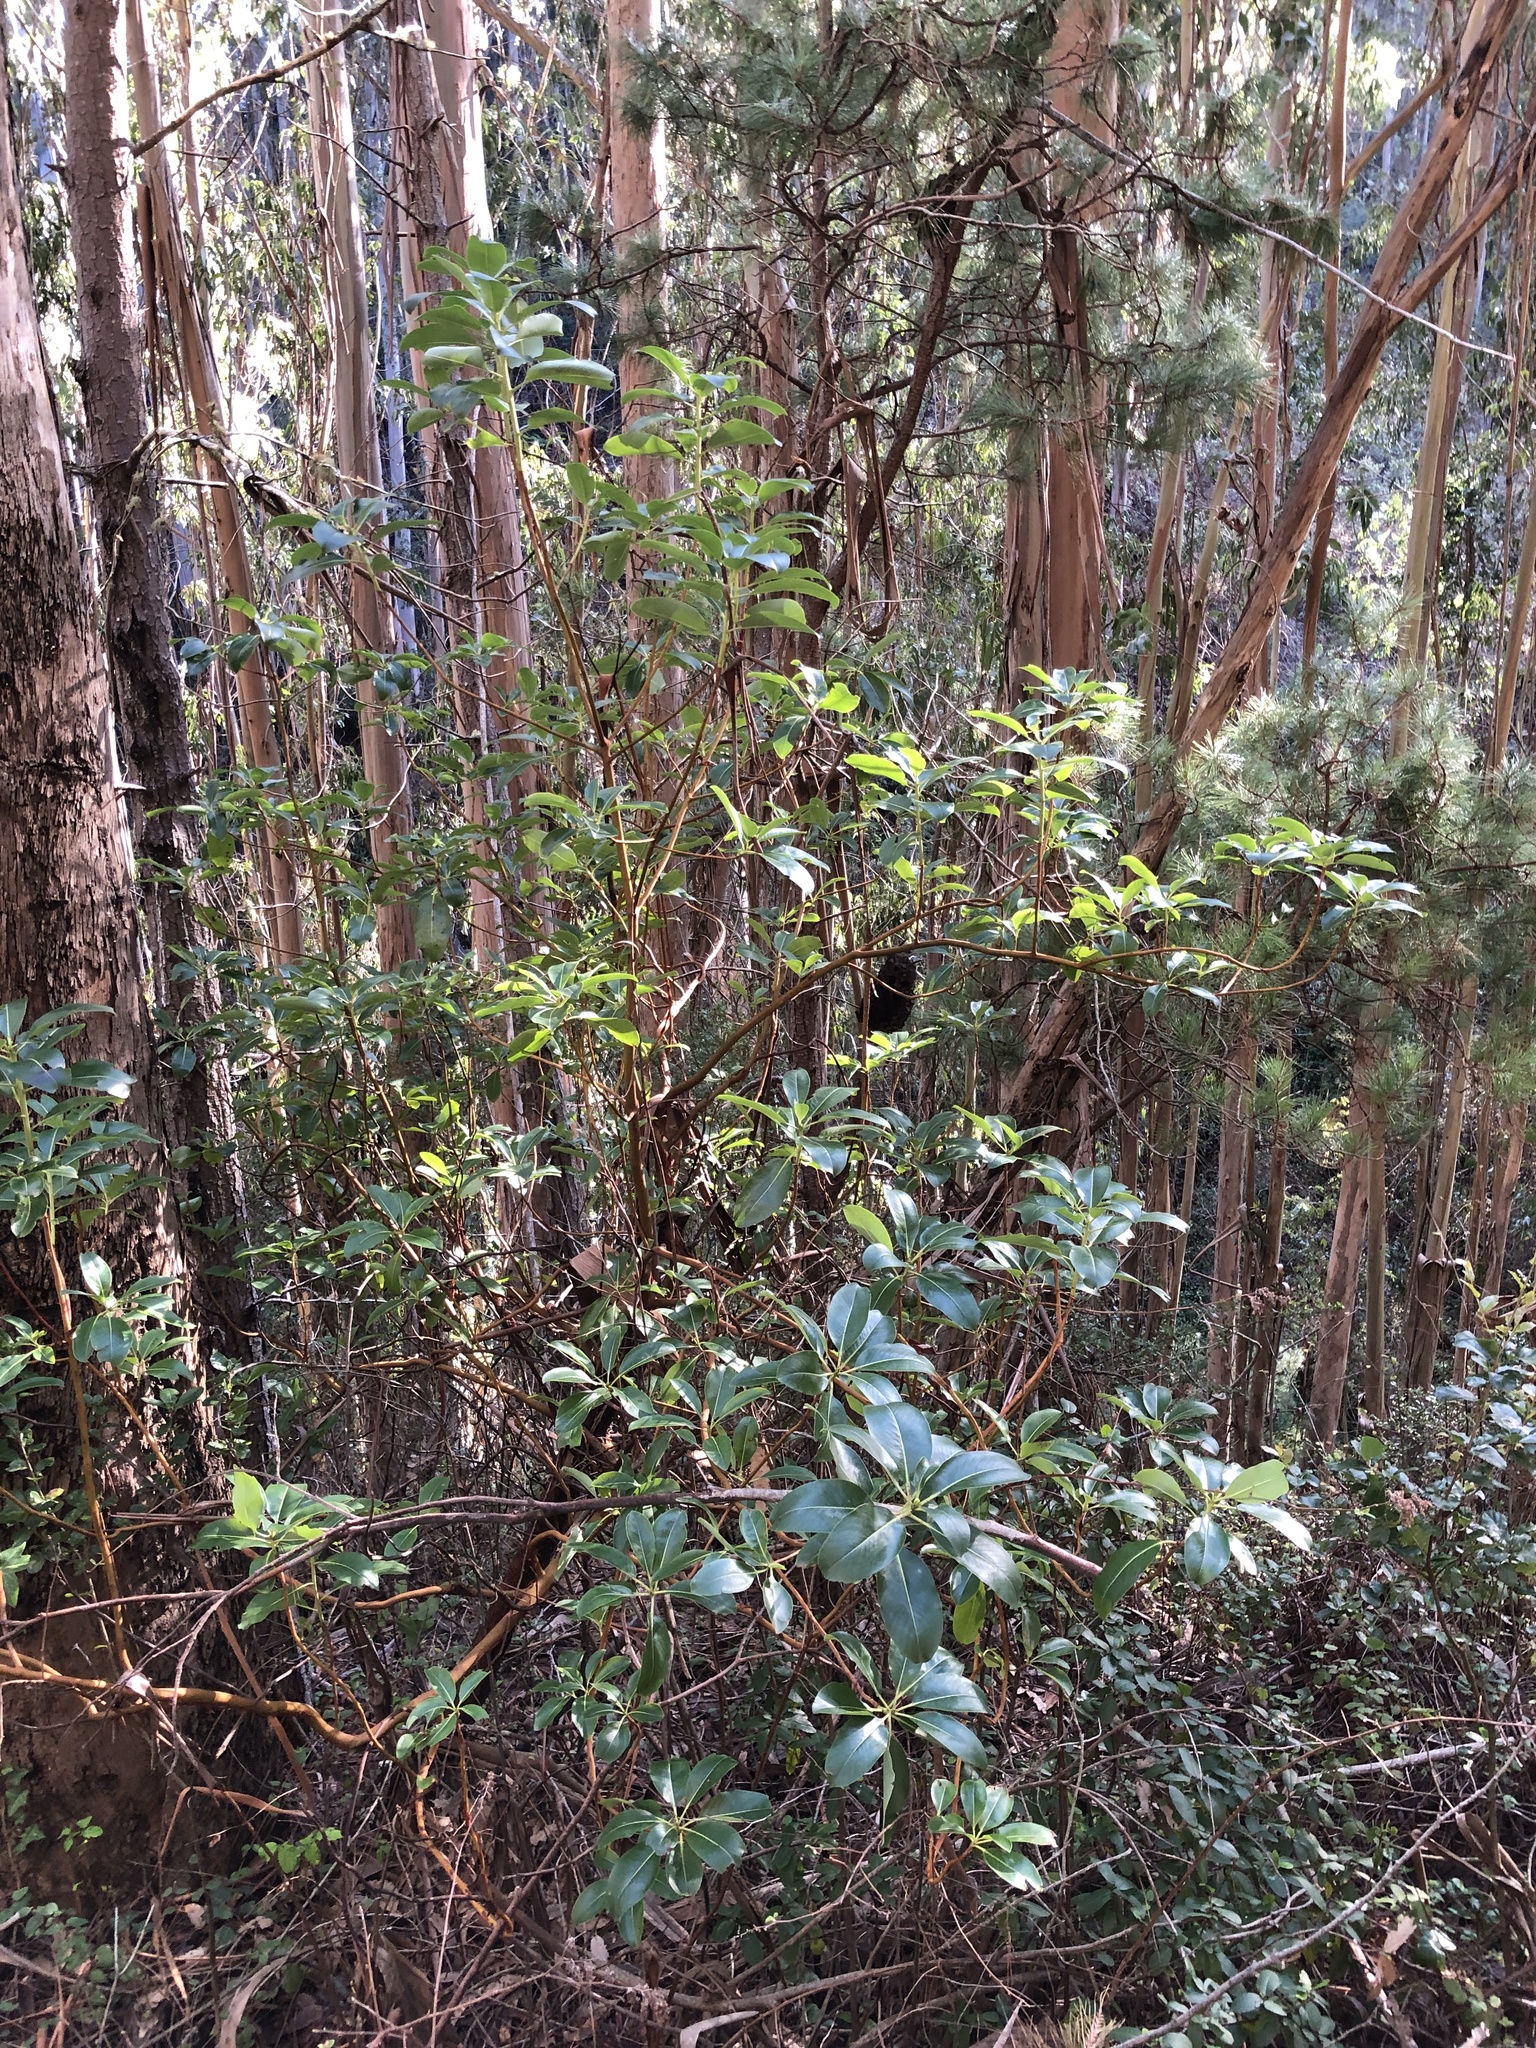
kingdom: Plantae
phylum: Tracheophyta
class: Magnoliopsida
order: Ericales
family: Ericaceae
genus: Arbutus
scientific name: Arbutus menziesii
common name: Pacific madrone
